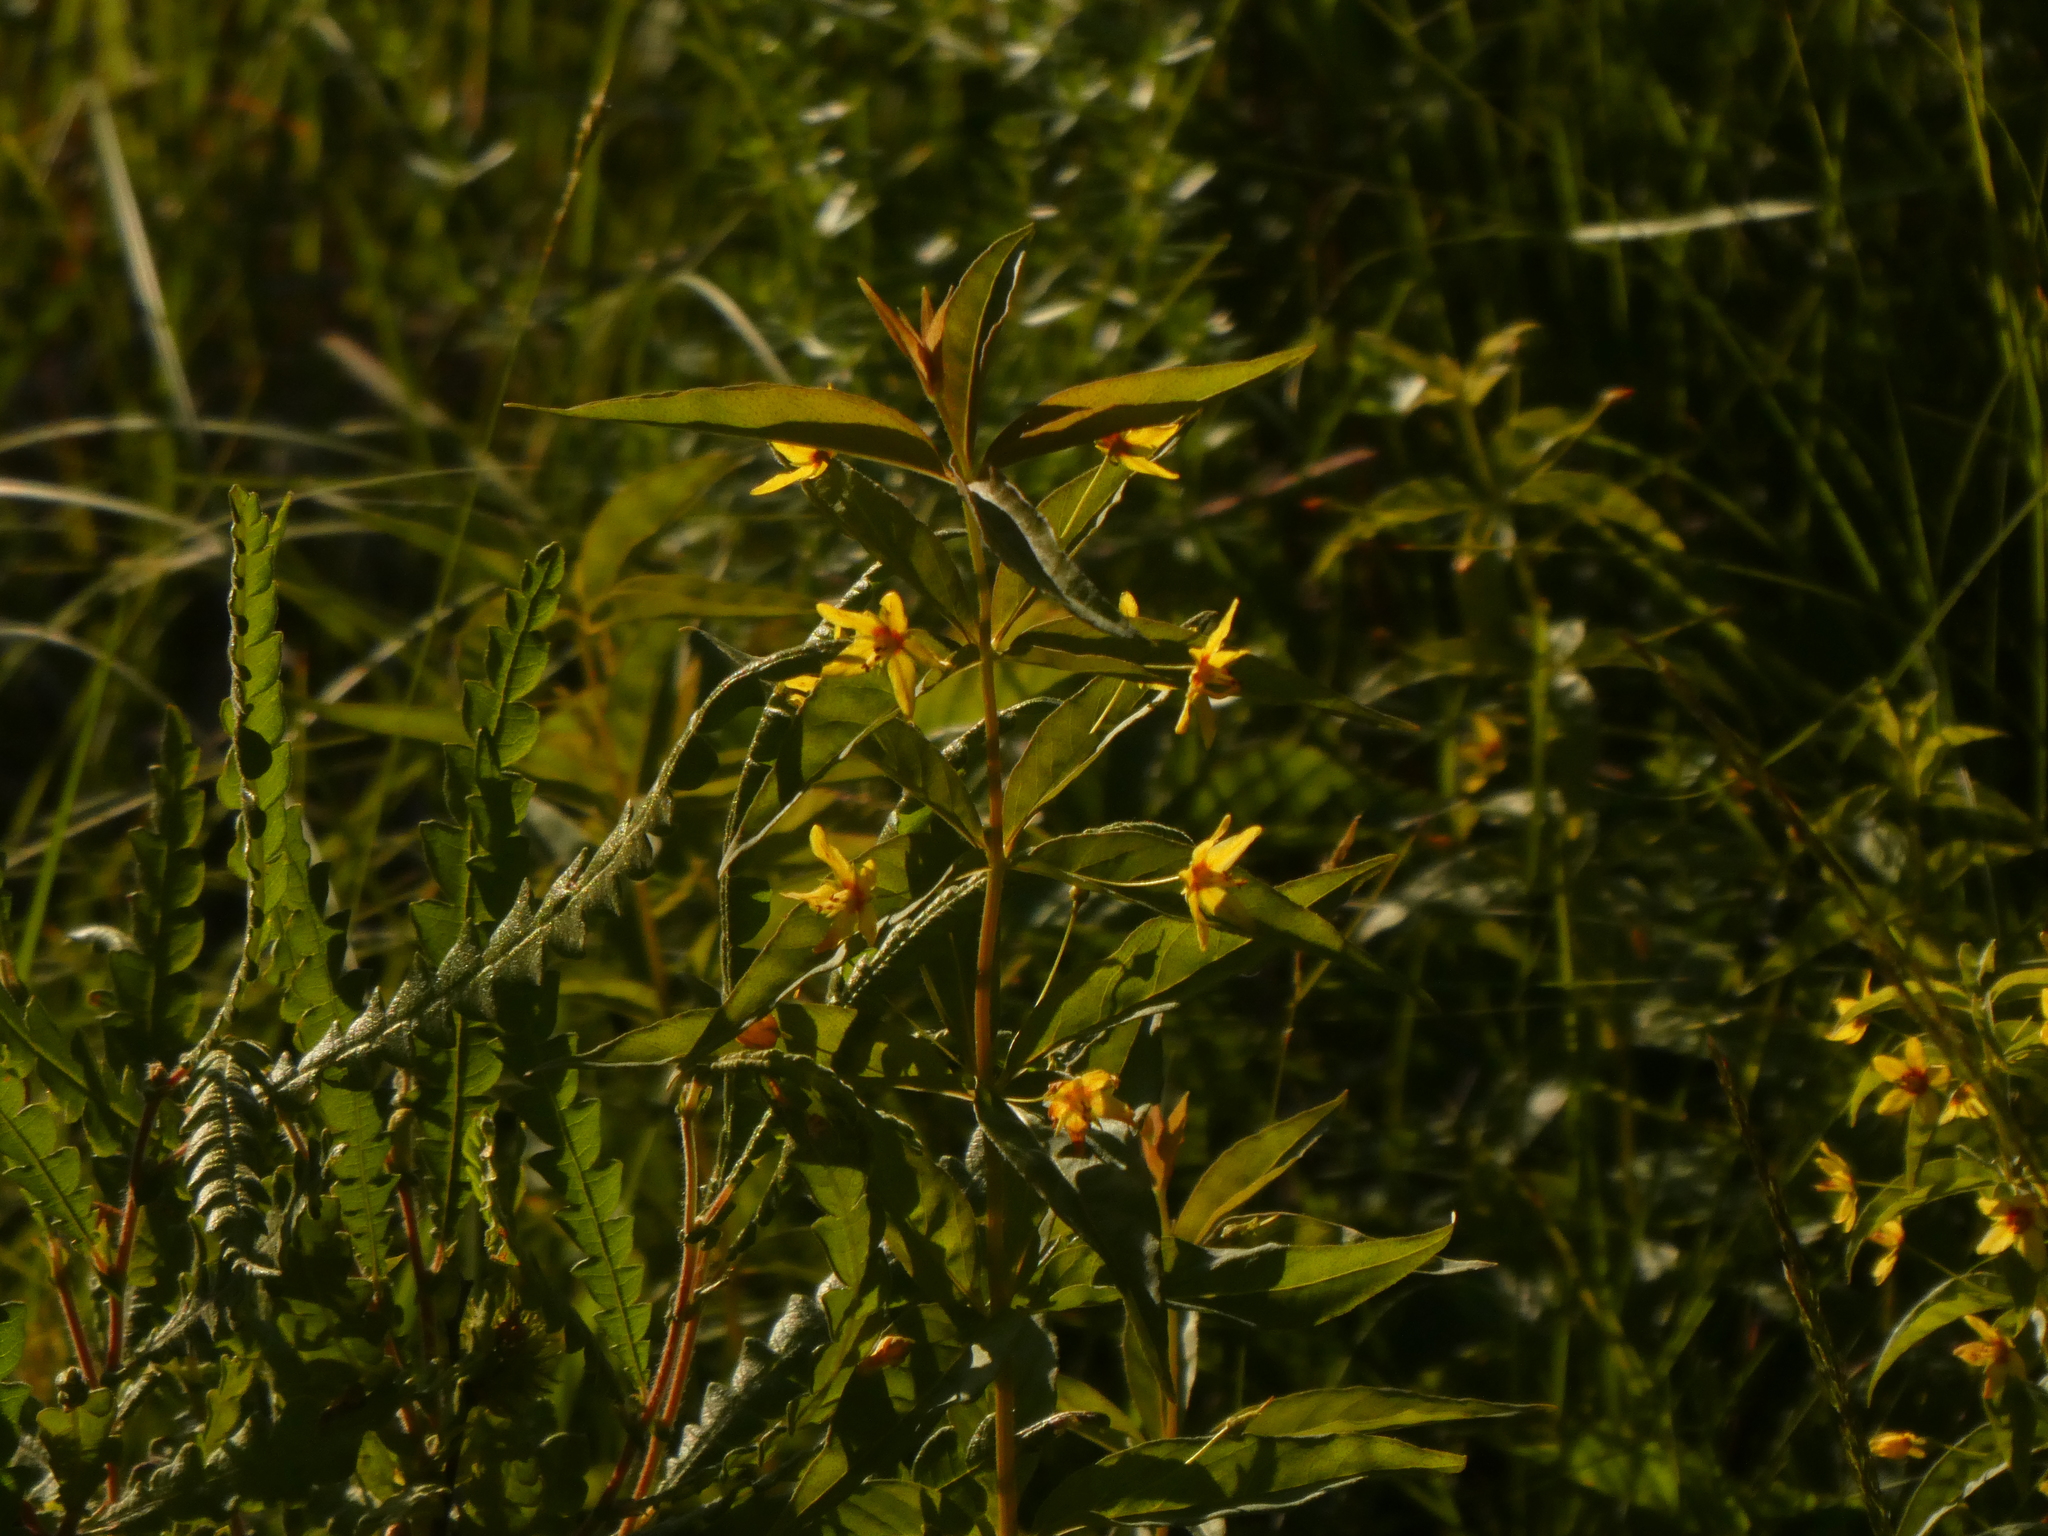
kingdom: Plantae
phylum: Tracheophyta
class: Magnoliopsida
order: Ericales
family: Primulaceae
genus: Lysimachia
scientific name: Lysimachia quadrifolia
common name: Whorled loosestrife
